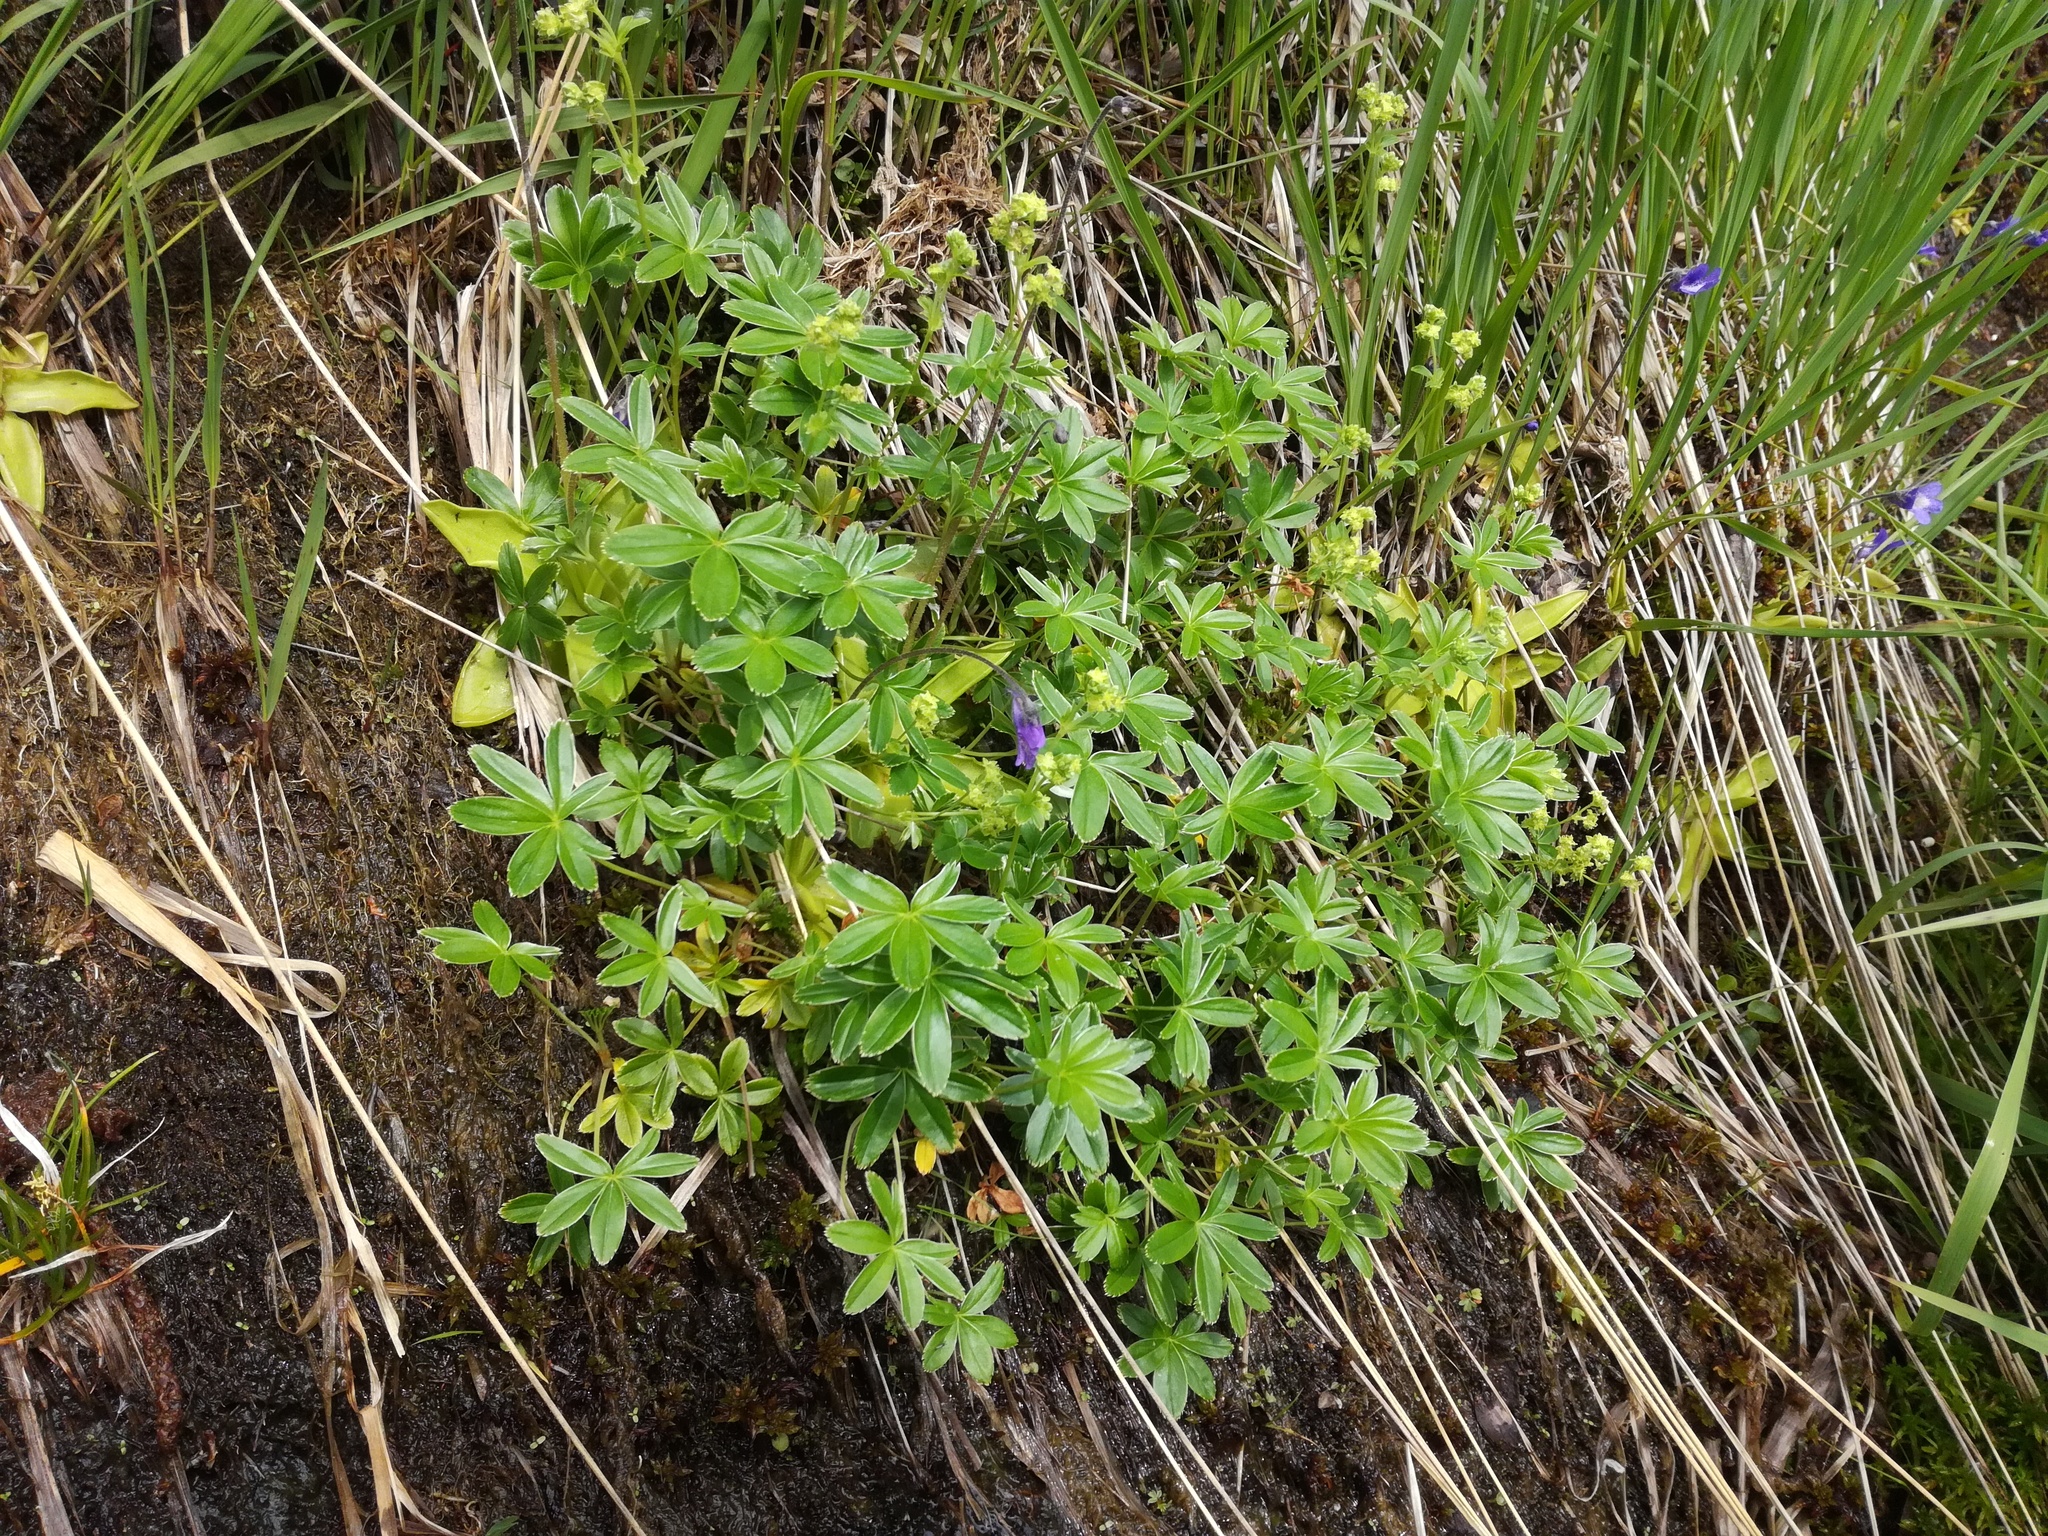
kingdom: Plantae
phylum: Tracheophyta
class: Magnoliopsida
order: Rosales
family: Rosaceae
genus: Alchemilla
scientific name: Alchemilla alpina
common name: Alpine lady's-mantle
